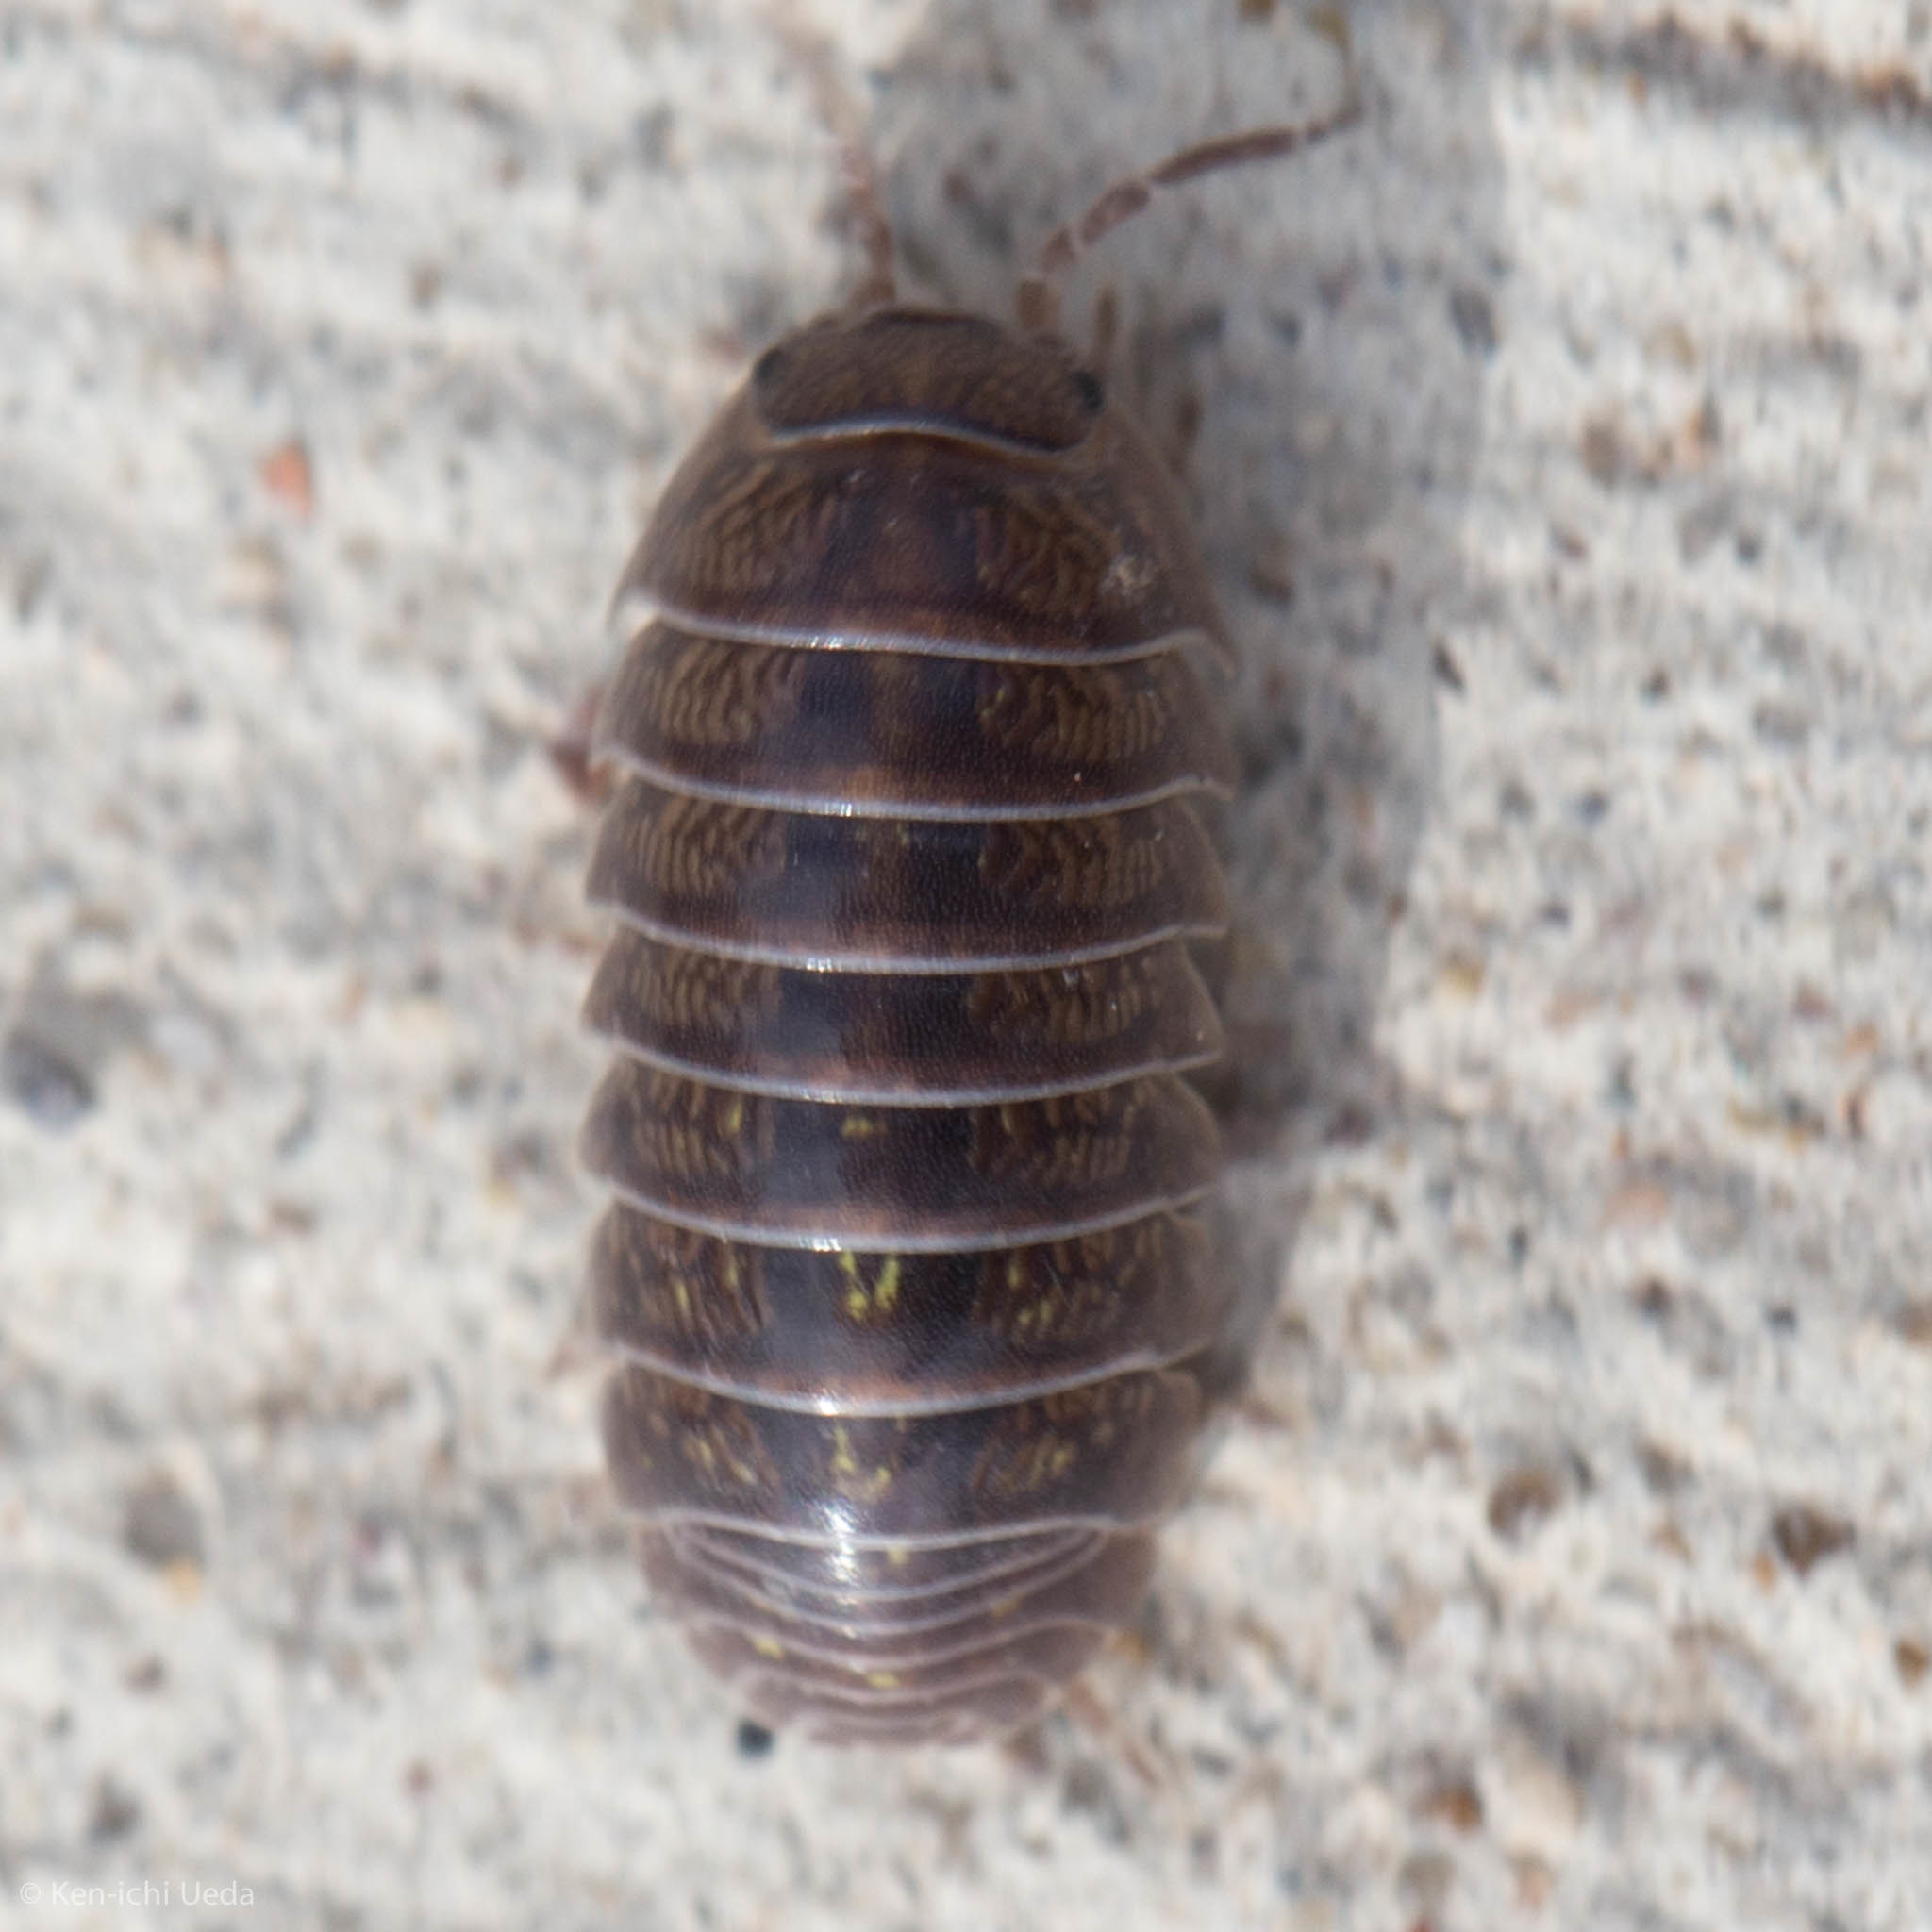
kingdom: Animalia
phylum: Arthropoda
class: Malacostraca
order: Isopoda
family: Armadillidiidae
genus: Armadillidium
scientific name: Armadillidium vulgare
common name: Common pill woodlouse
